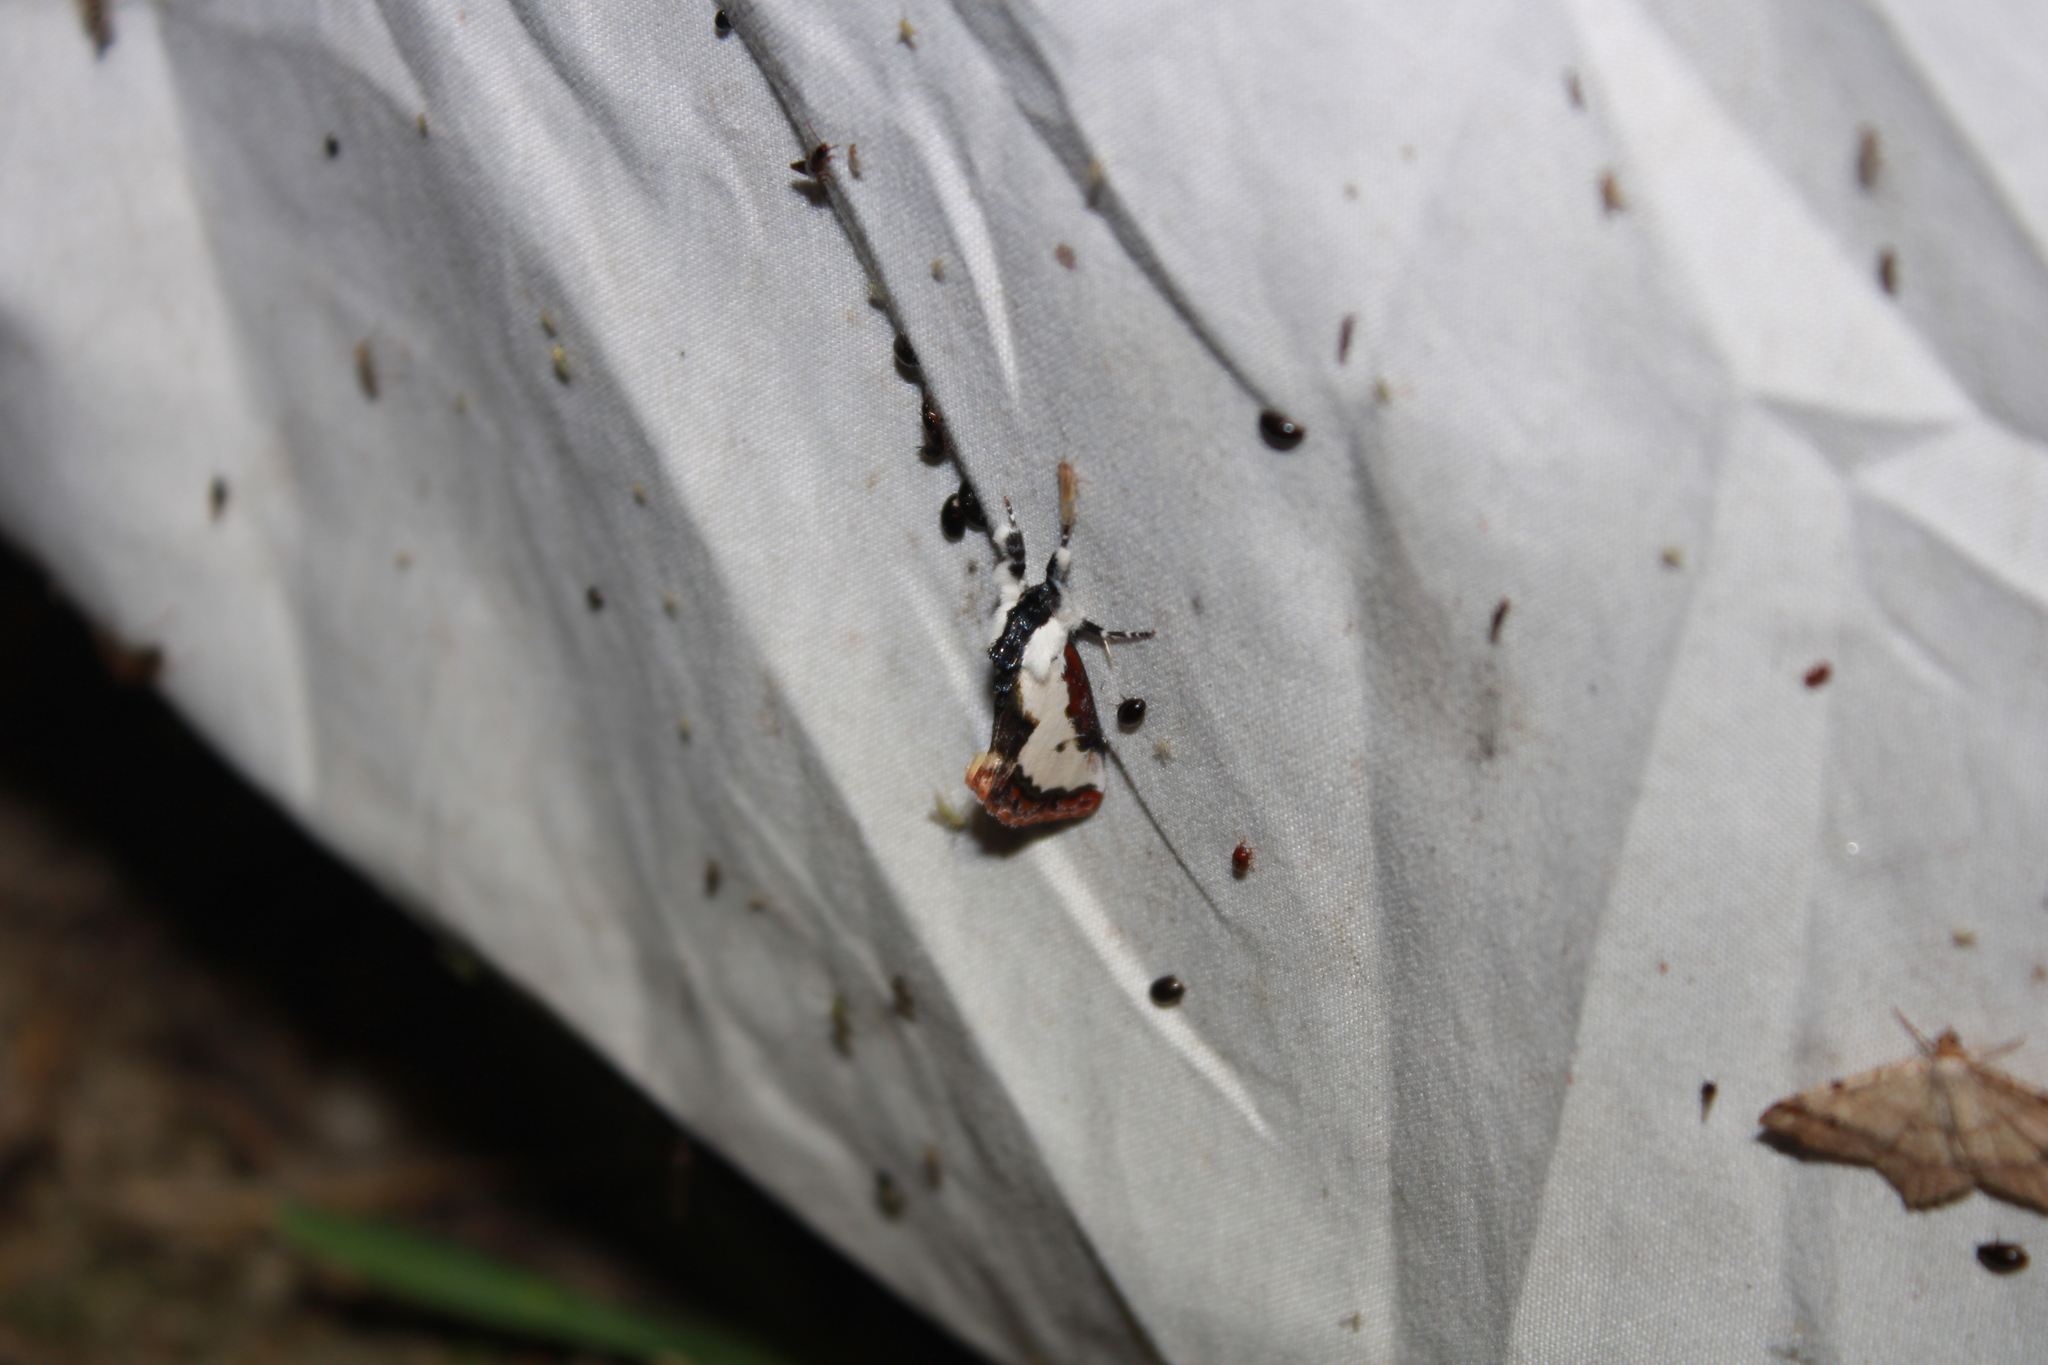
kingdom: Animalia
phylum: Arthropoda
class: Insecta
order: Lepidoptera
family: Noctuidae
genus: Eudryas
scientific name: Eudryas unio
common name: Pearly wood-nymph
